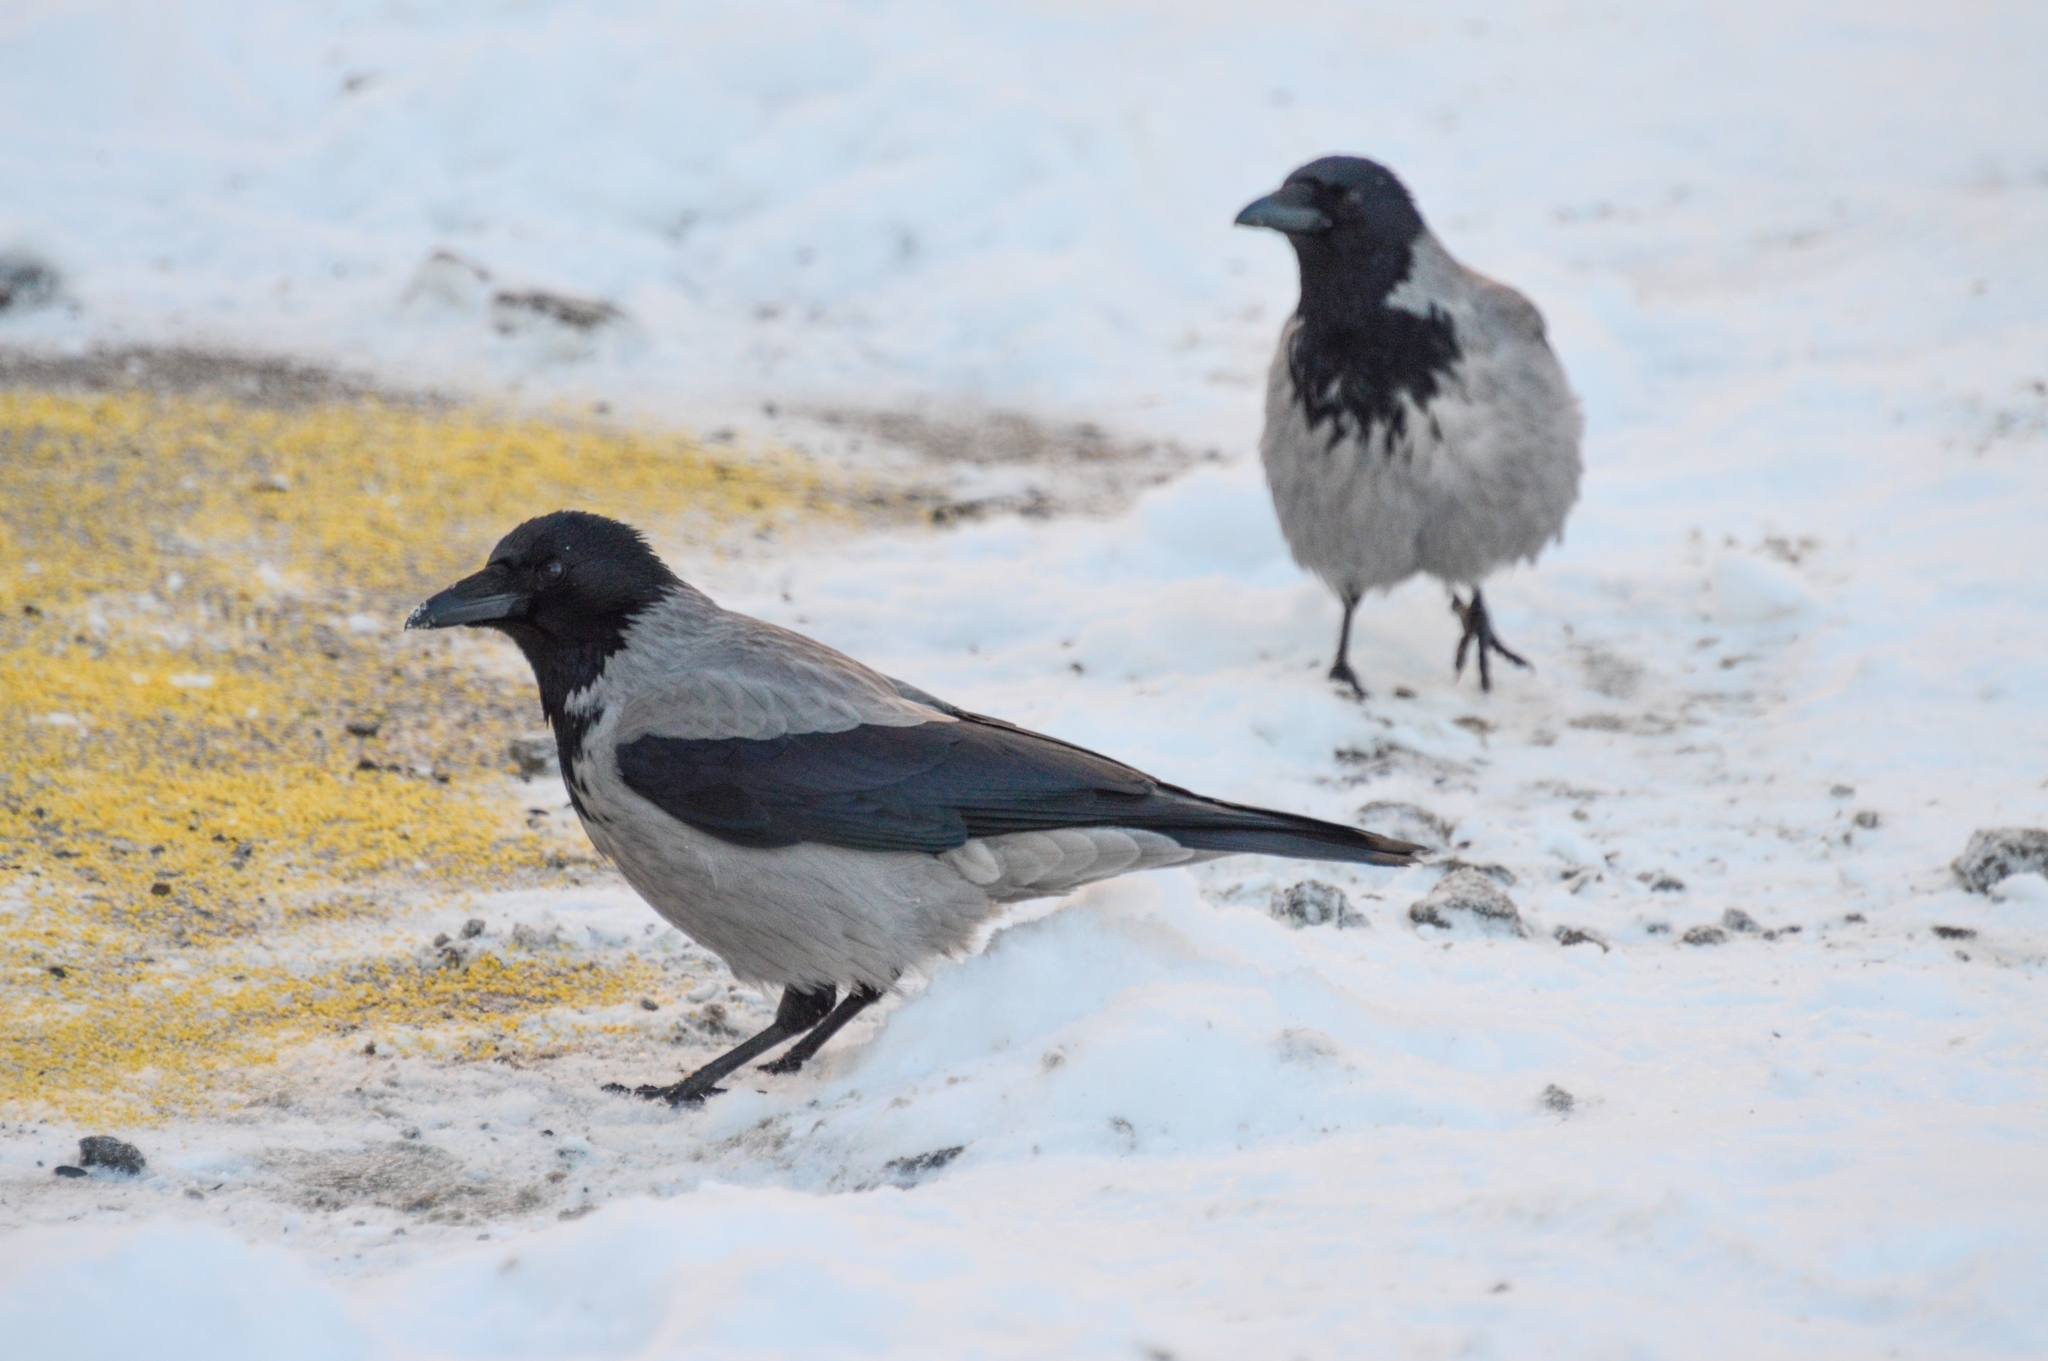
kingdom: Animalia
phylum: Chordata
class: Aves
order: Passeriformes
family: Corvidae
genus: Corvus
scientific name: Corvus cornix
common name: Hooded crow
